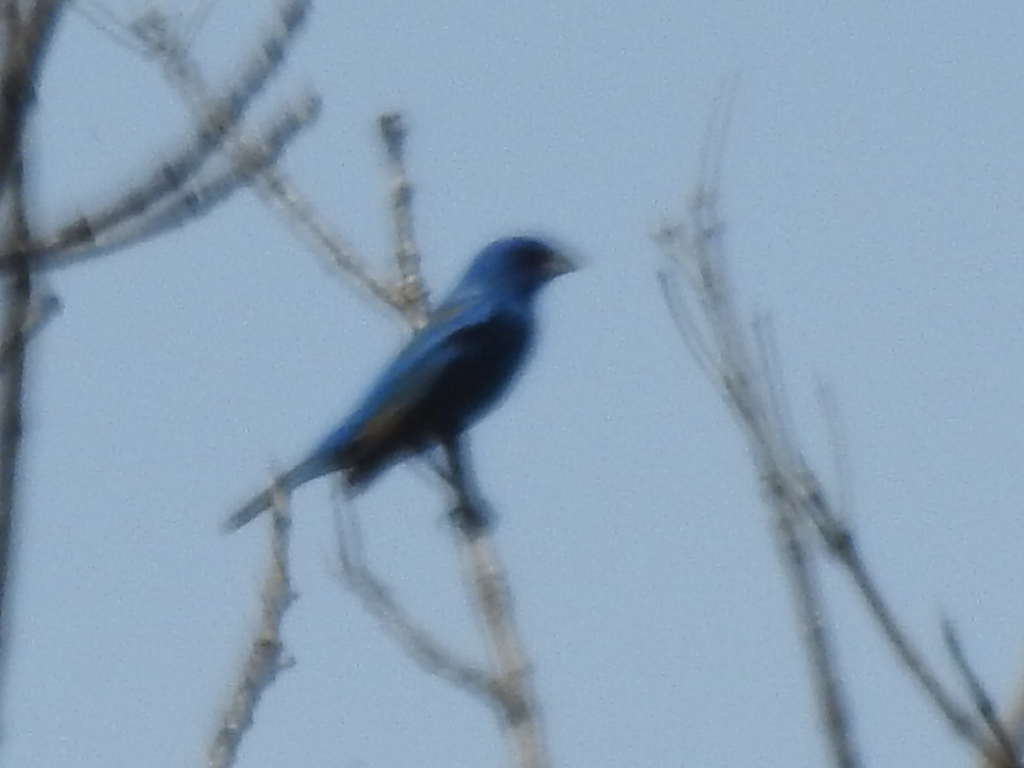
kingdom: Animalia
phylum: Chordata
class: Aves
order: Passeriformes
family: Cardinalidae
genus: Passerina
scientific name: Passerina cyanea
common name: Indigo bunting
